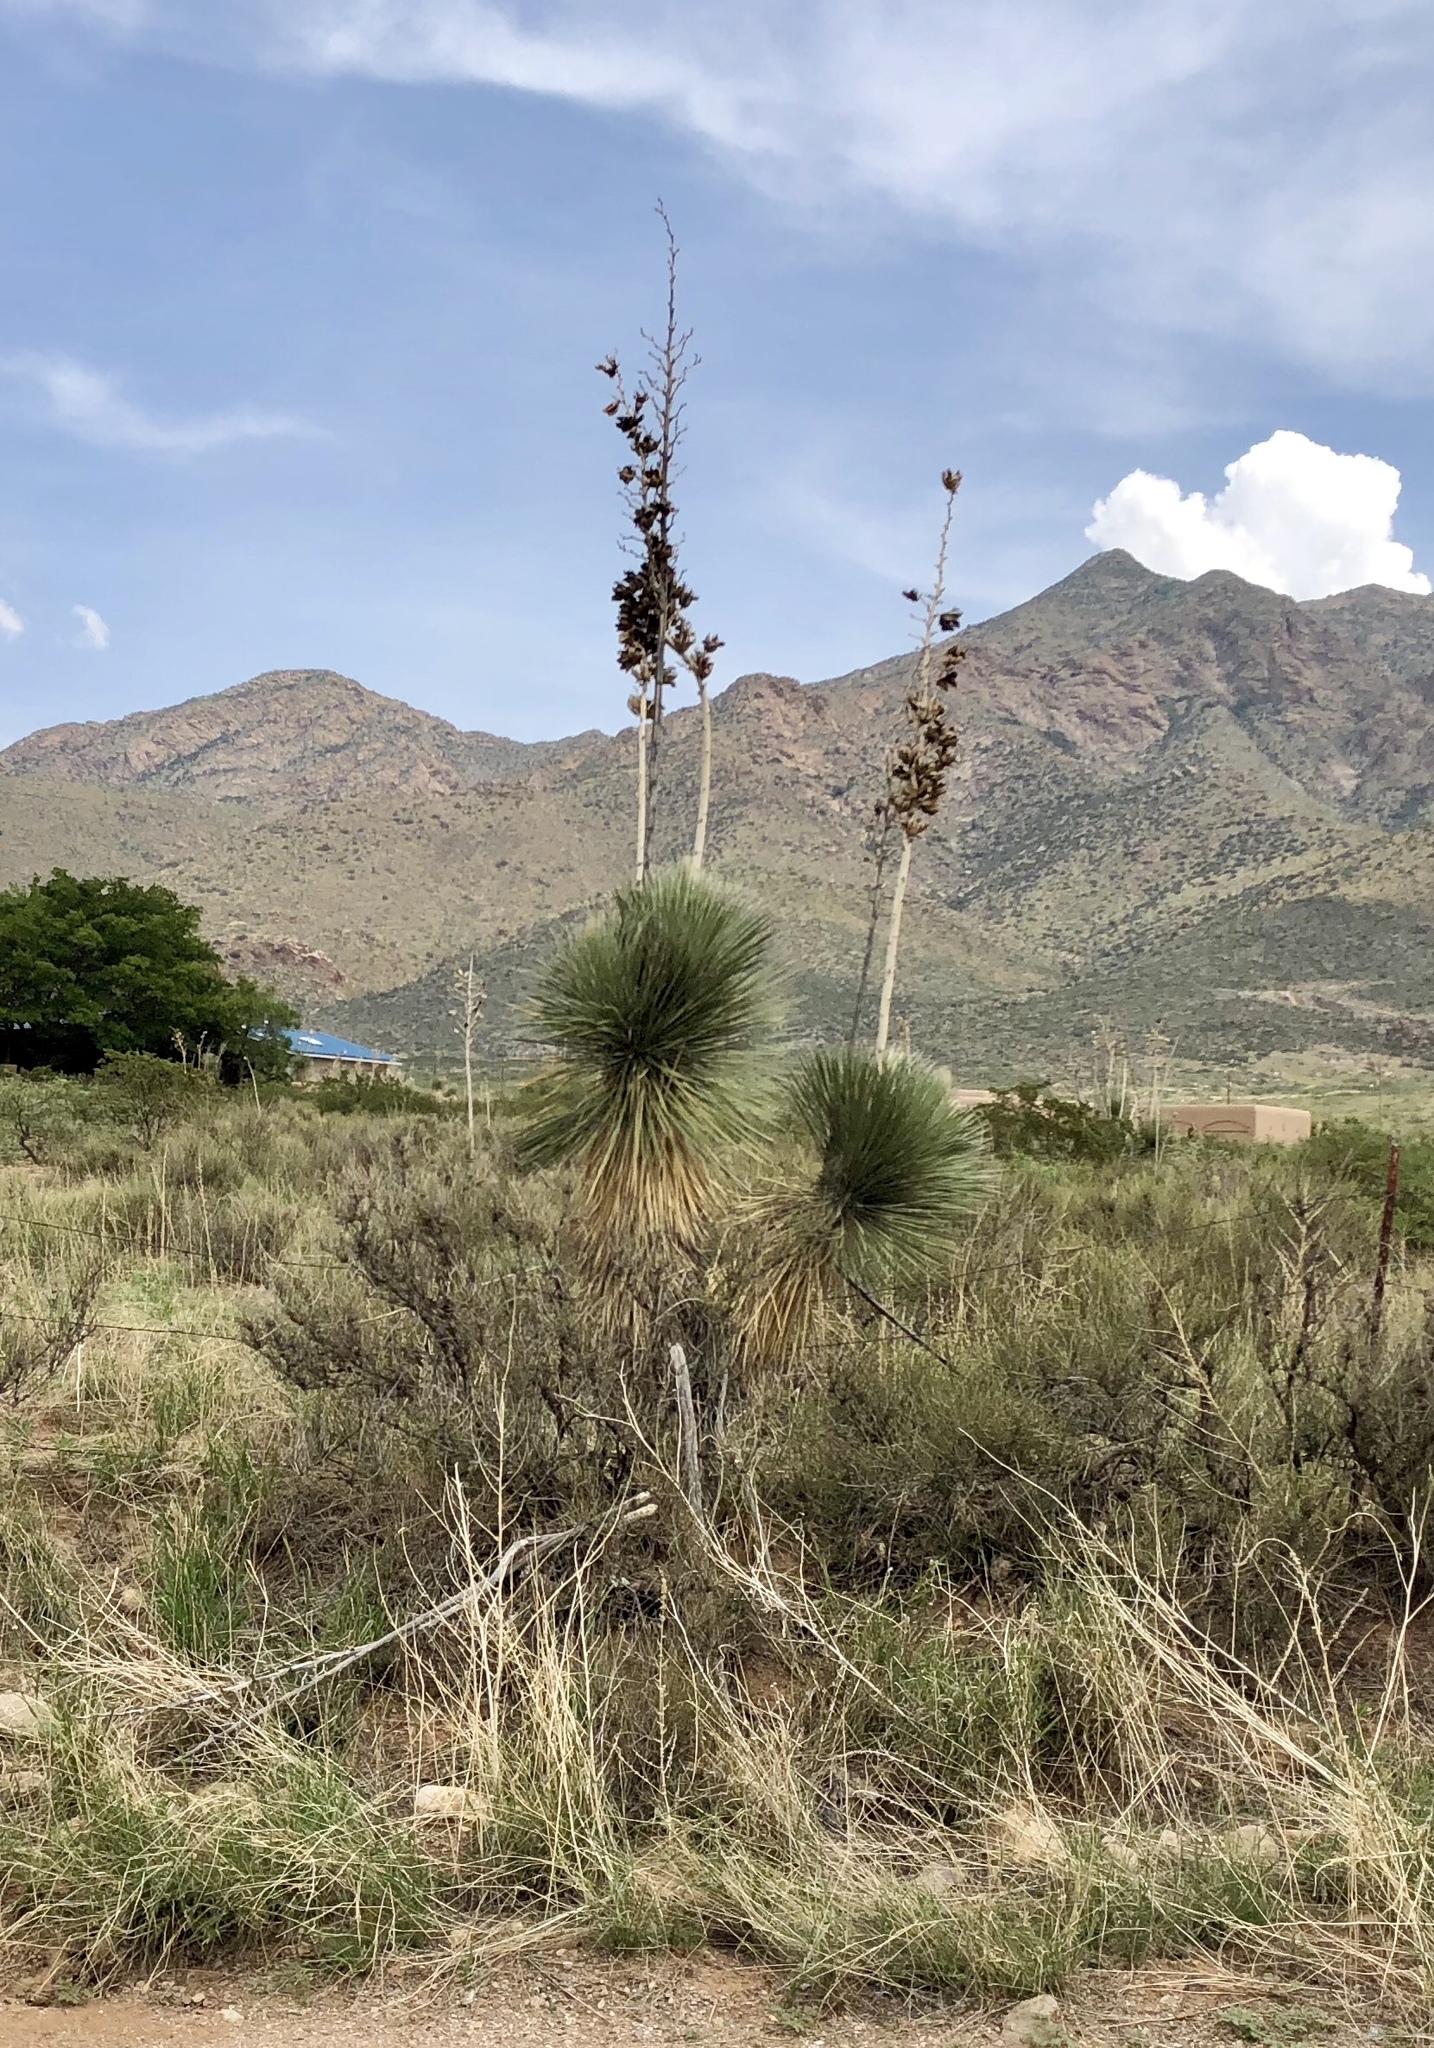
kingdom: Plantae
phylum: Tracheophyta
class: Liliopsida
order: Asparagales
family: Asparagaceae
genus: Yucca
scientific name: Yucca elata
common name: Palmella
